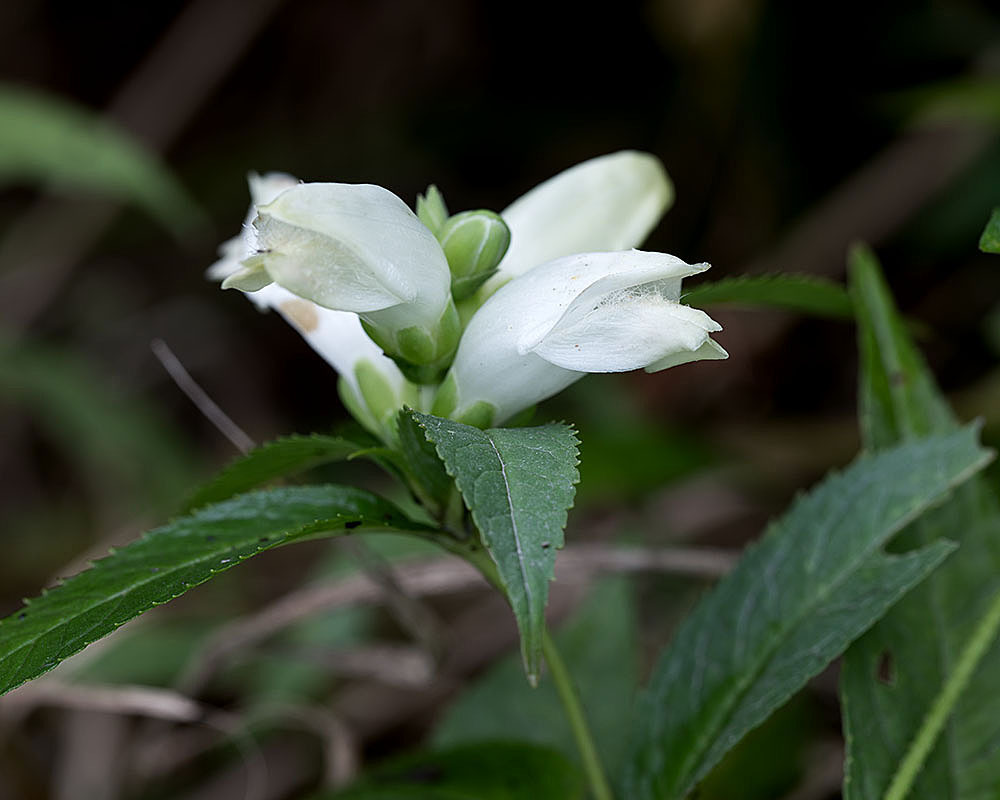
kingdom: Plantae
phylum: Tracheophyta
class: Magnoliopsida
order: Lamiales
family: Plantaginaceae
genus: Chelone
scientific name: Chelone glabra
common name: Snakehead
